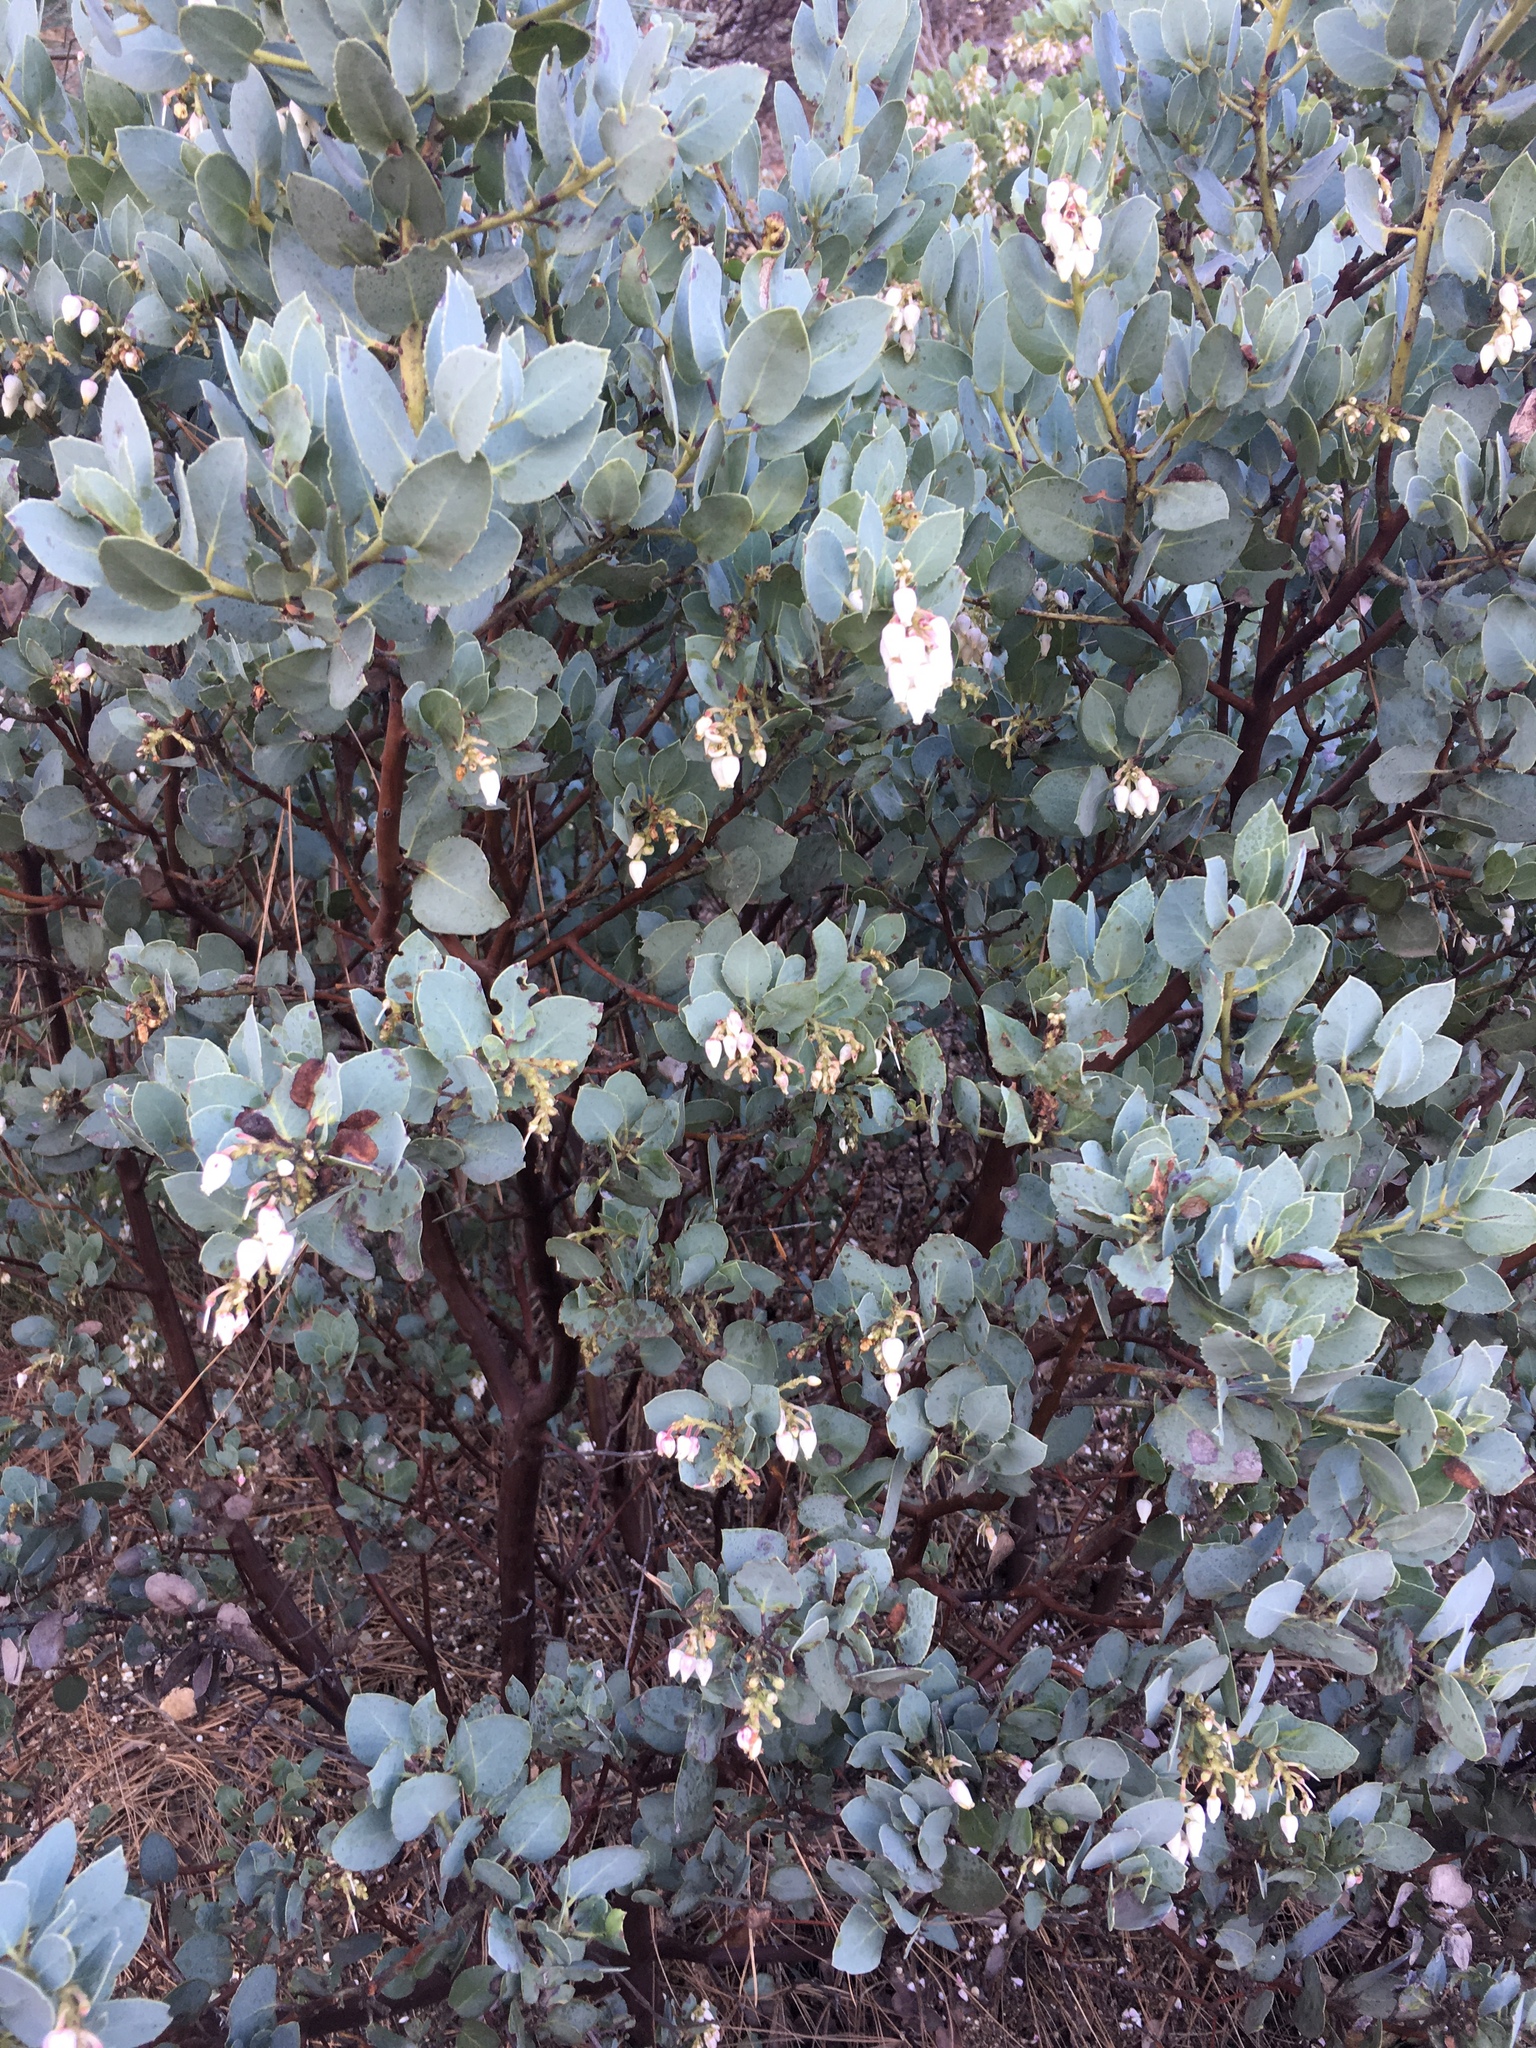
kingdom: Plantae
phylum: Tracheophyta
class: Magnoliopsida
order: Ericales
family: Ericaceae
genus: Arctostaphylos
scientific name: Arctostaphylos glauca
